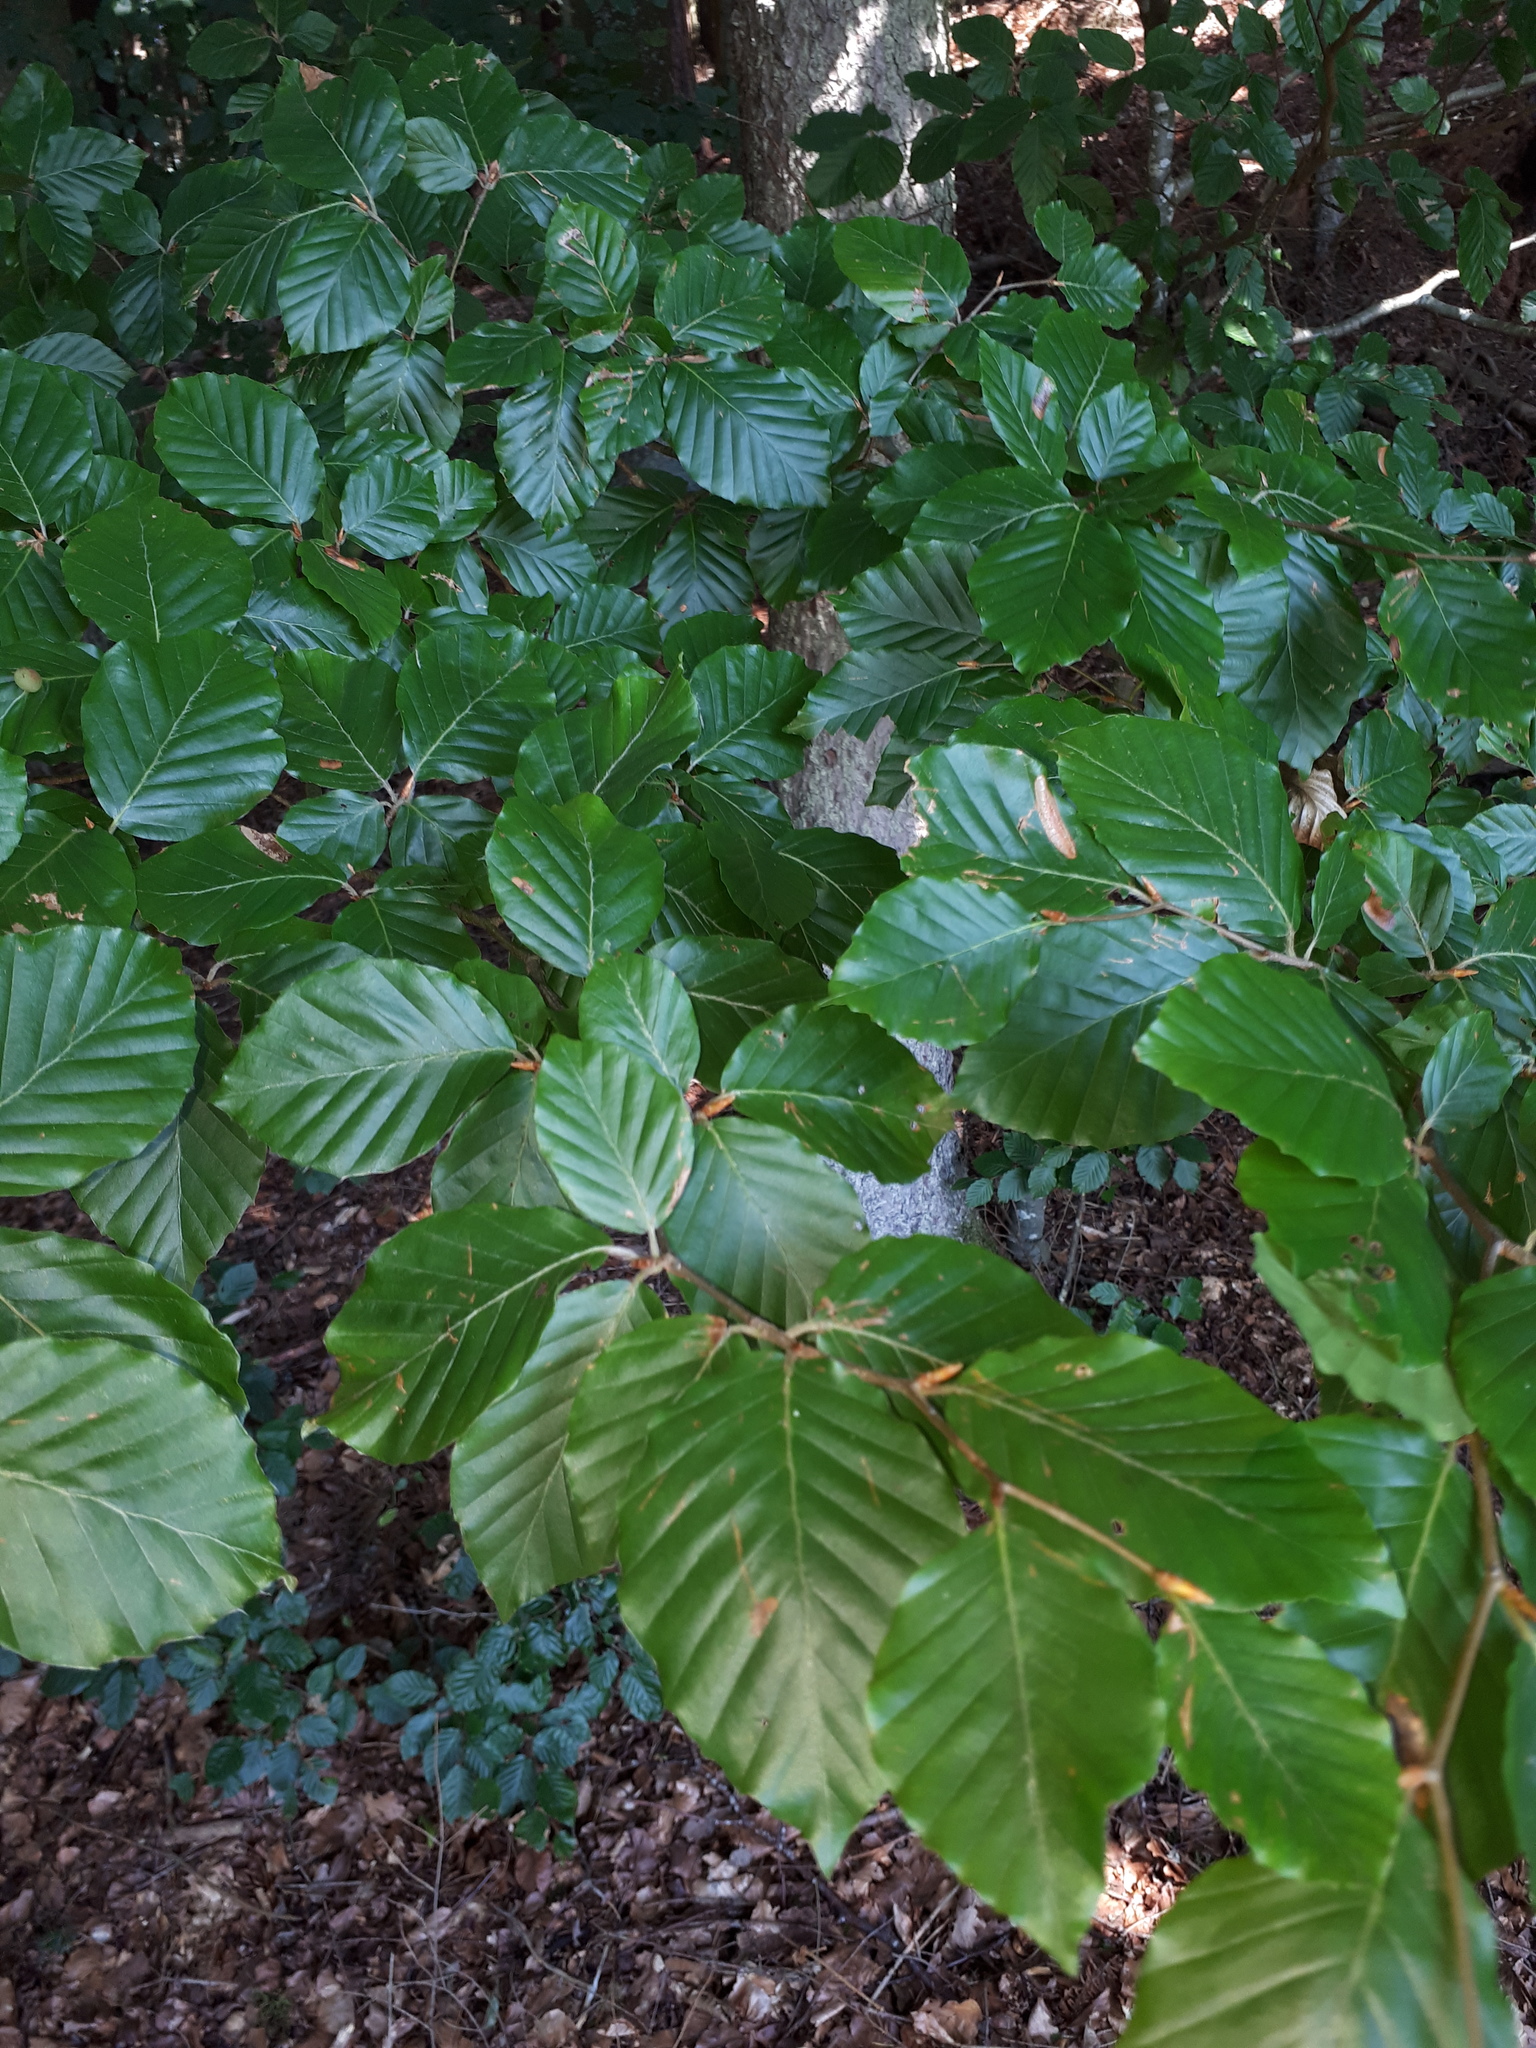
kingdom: Plantae
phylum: Tracheophyta
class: Magnoliopsida
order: Fagales
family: Fagaceae
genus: Fagus
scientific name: Fagus sylvatica
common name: Beech
